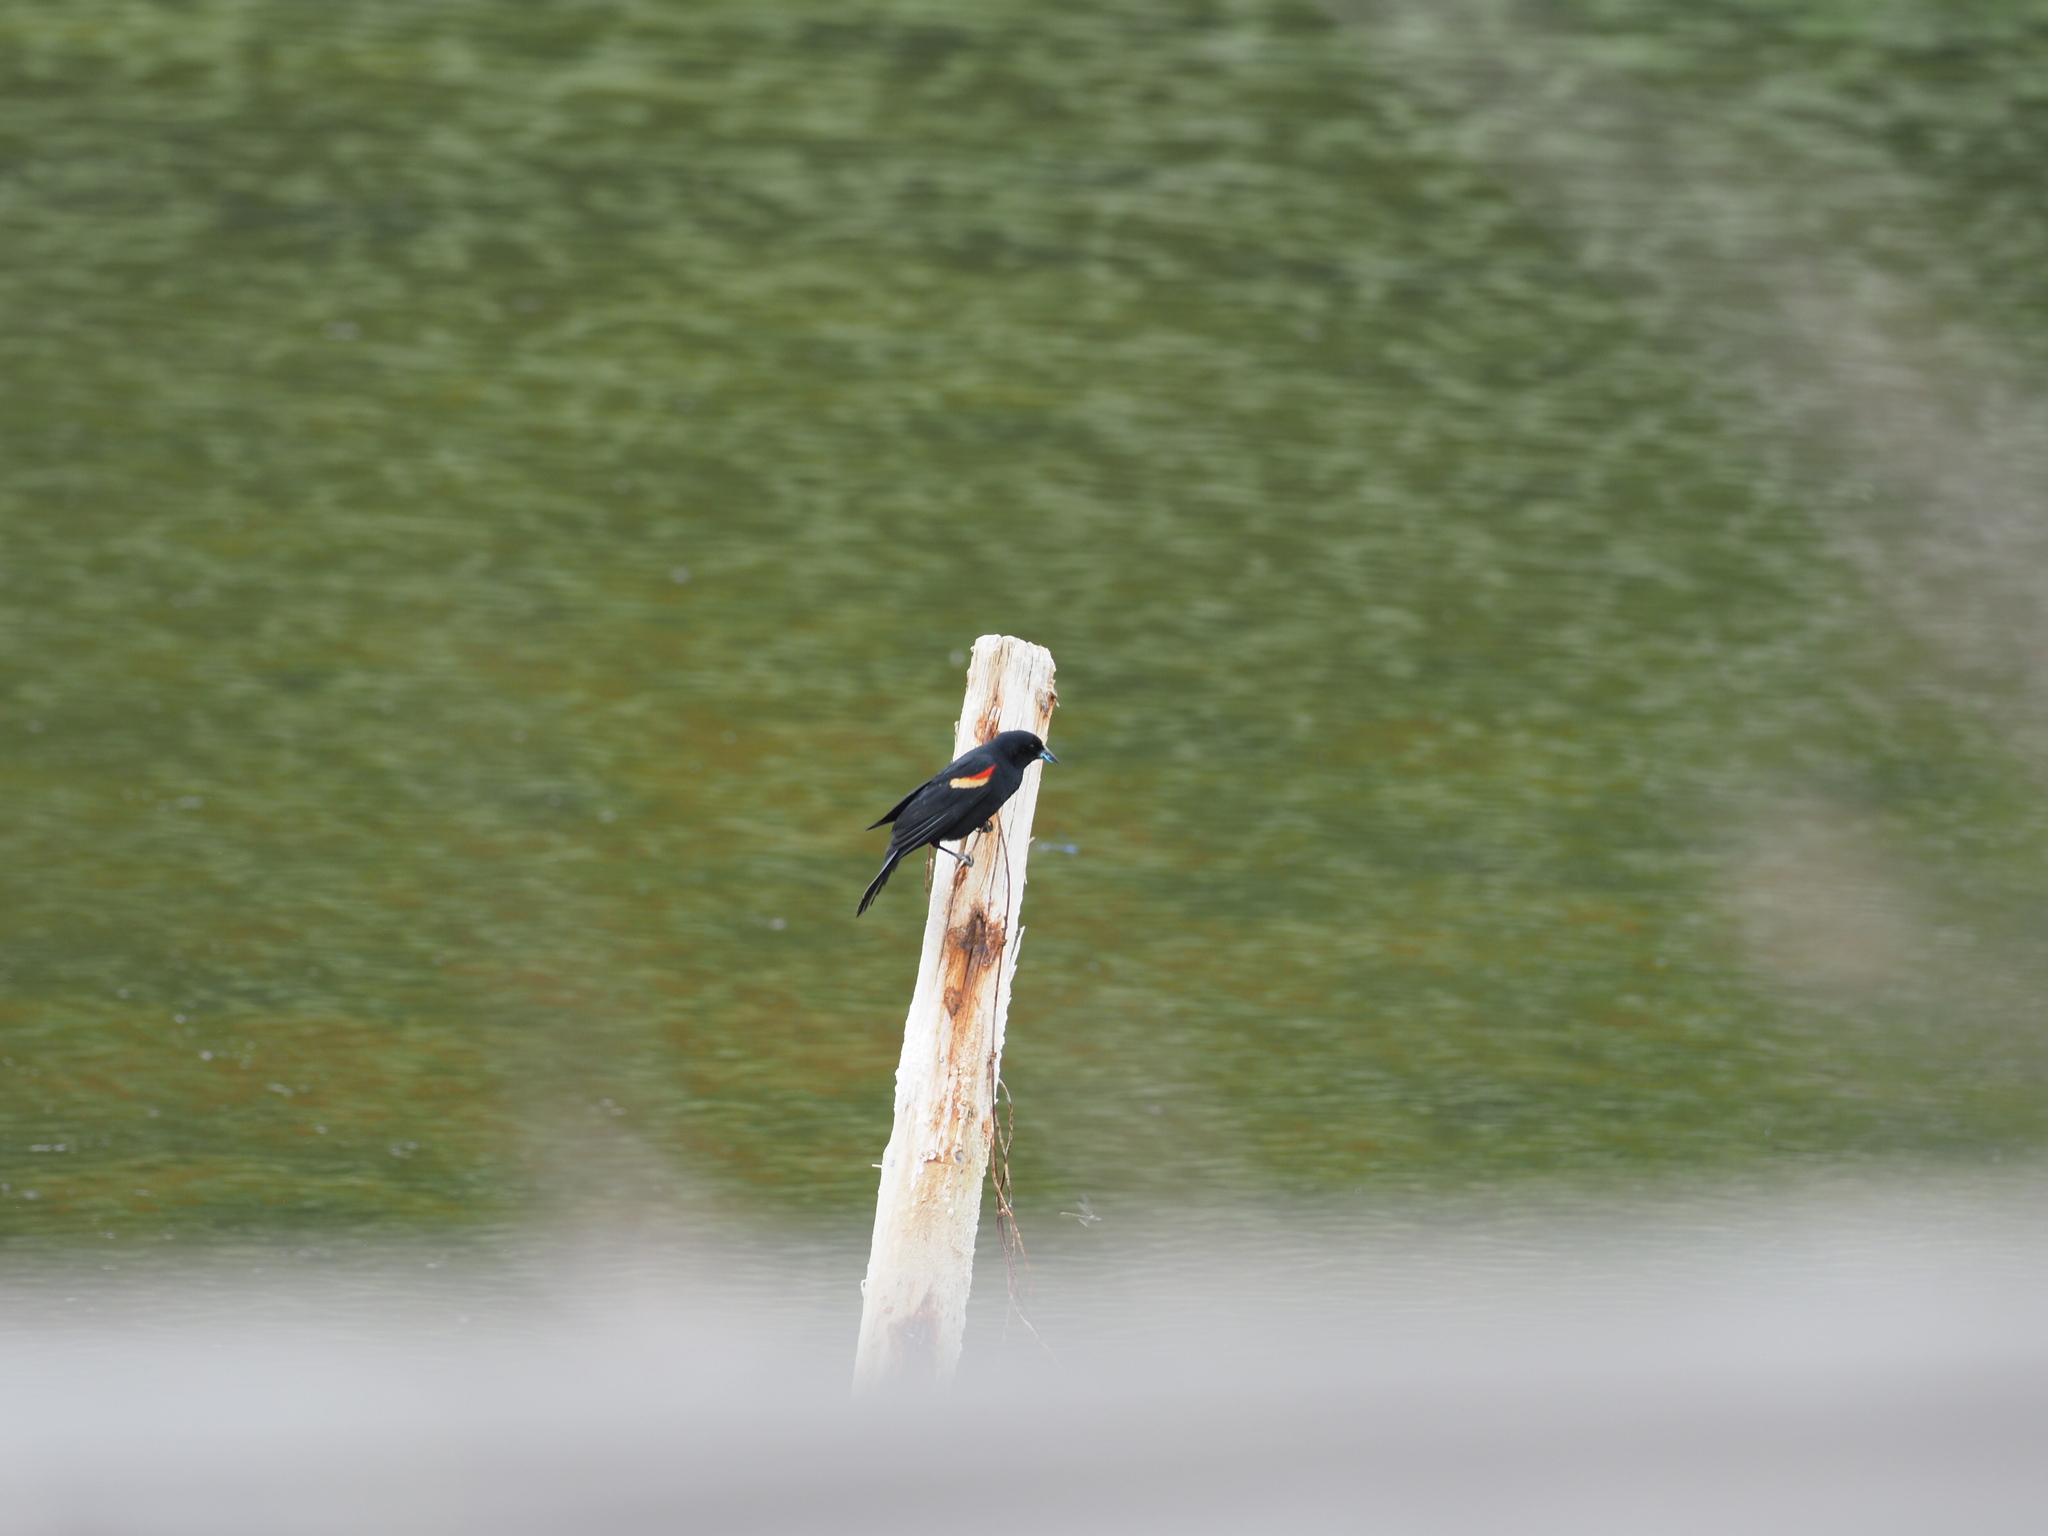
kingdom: Animalia
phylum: Chordata
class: Aves
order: Passeriformes
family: Icteridae
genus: Agelaius
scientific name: Agelaius phoeniceus
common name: Red-winged blackbird
